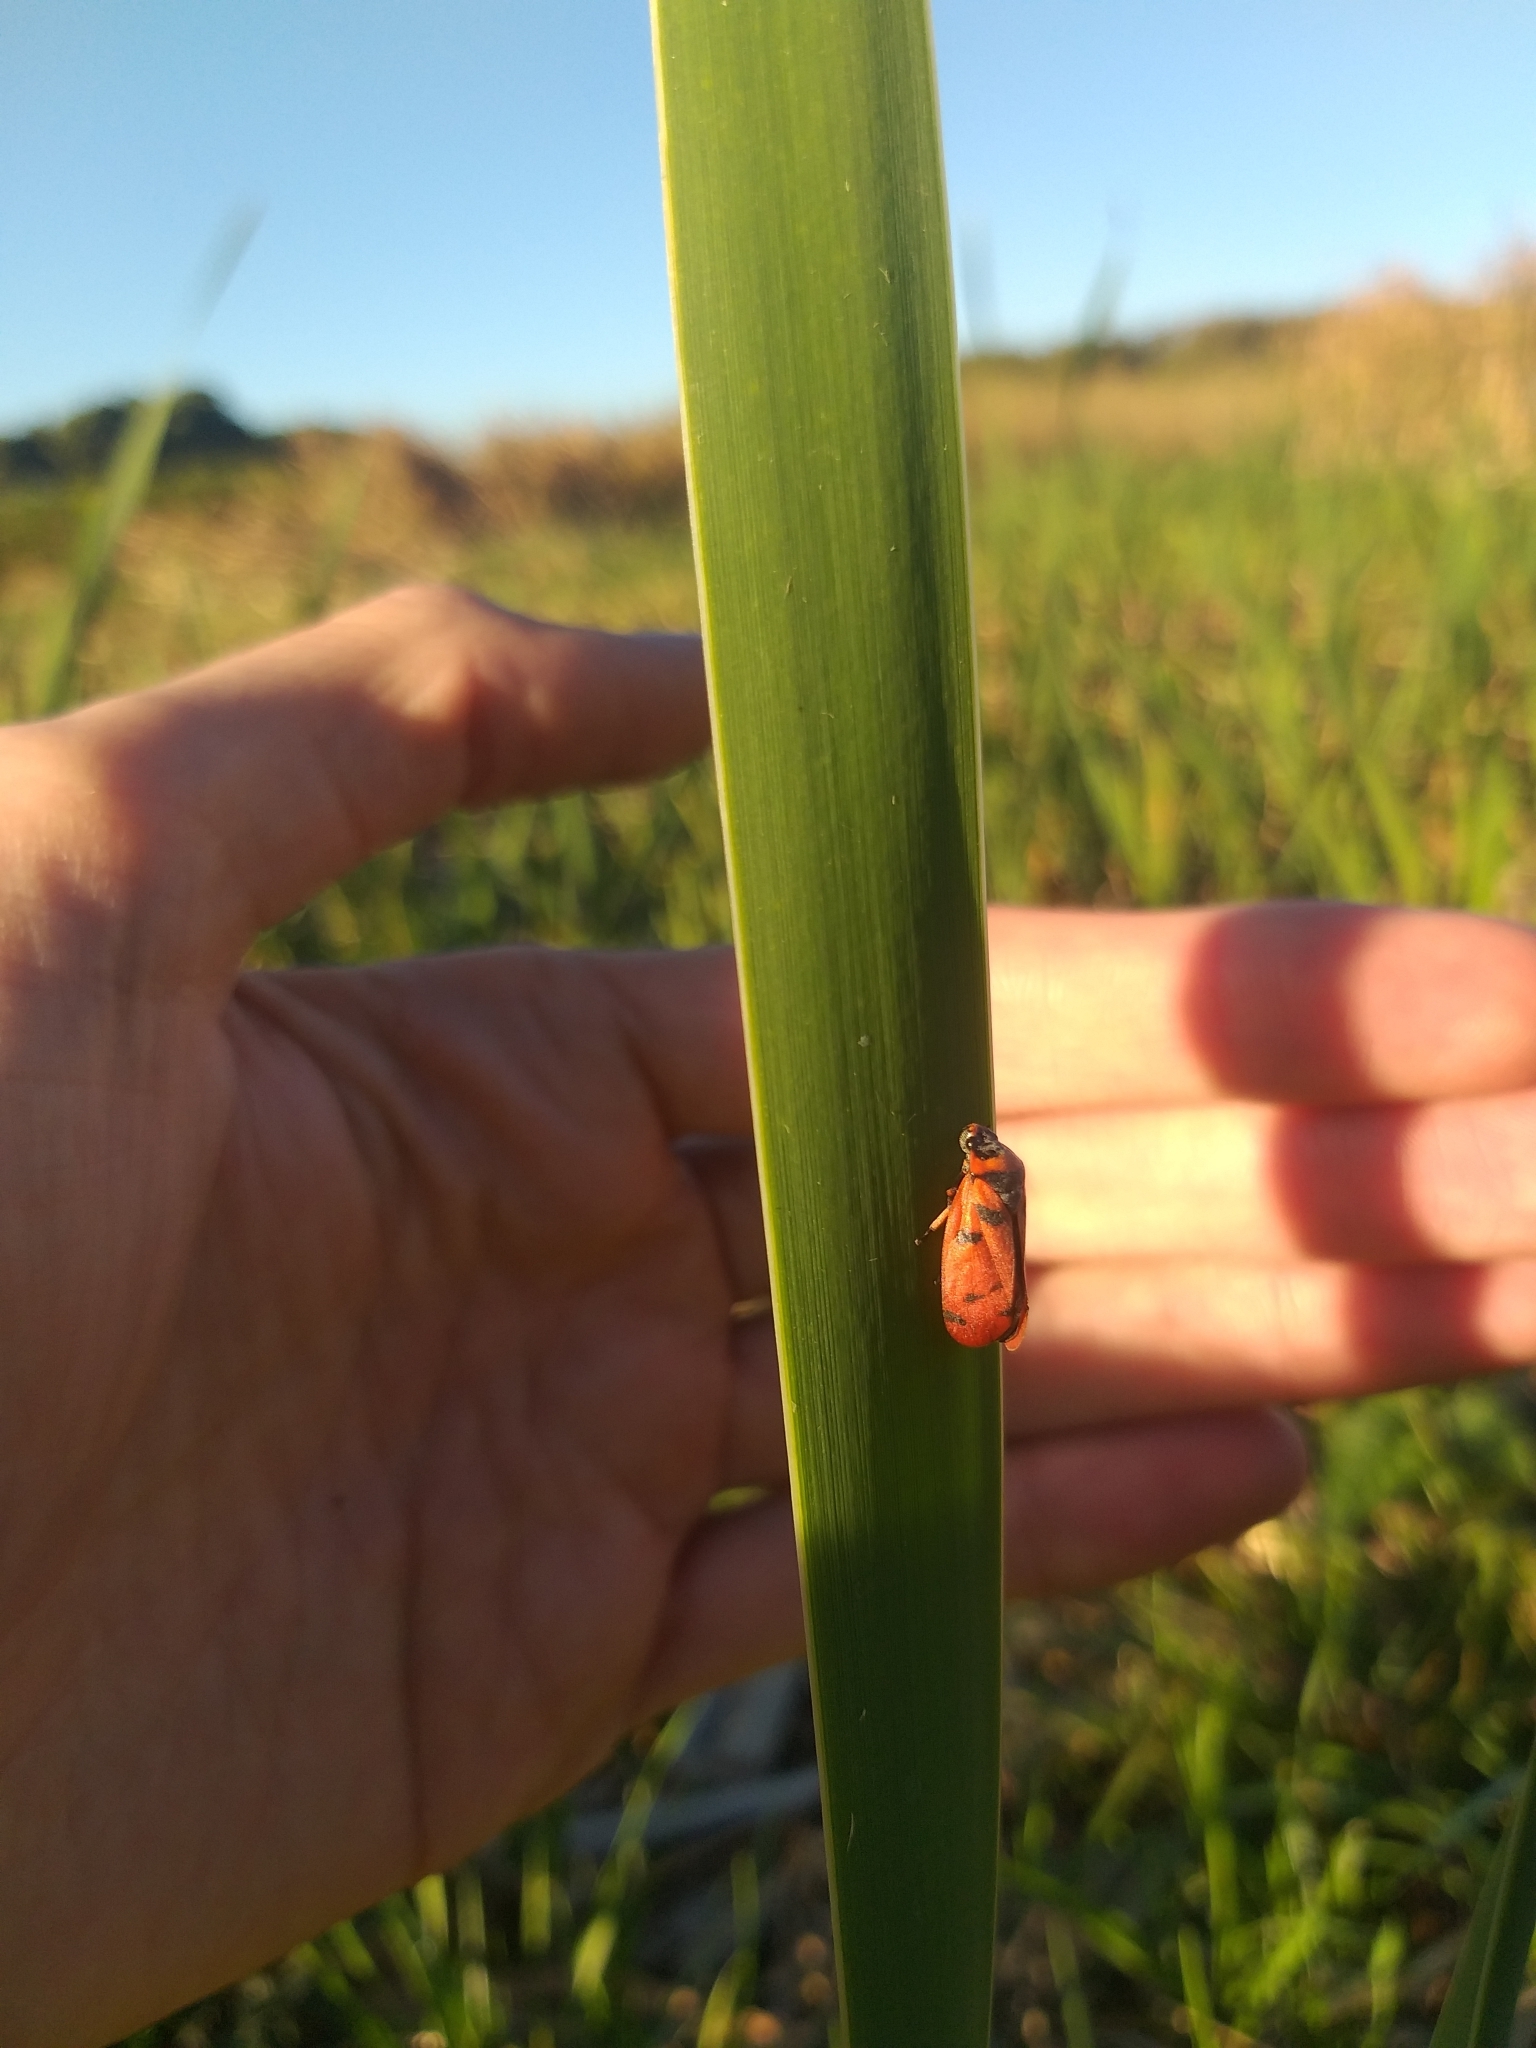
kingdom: Animalia
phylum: Arthropoda
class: Insecta
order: Hemiptera
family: Cercopidae
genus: Locris
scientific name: Locris arithmetica
